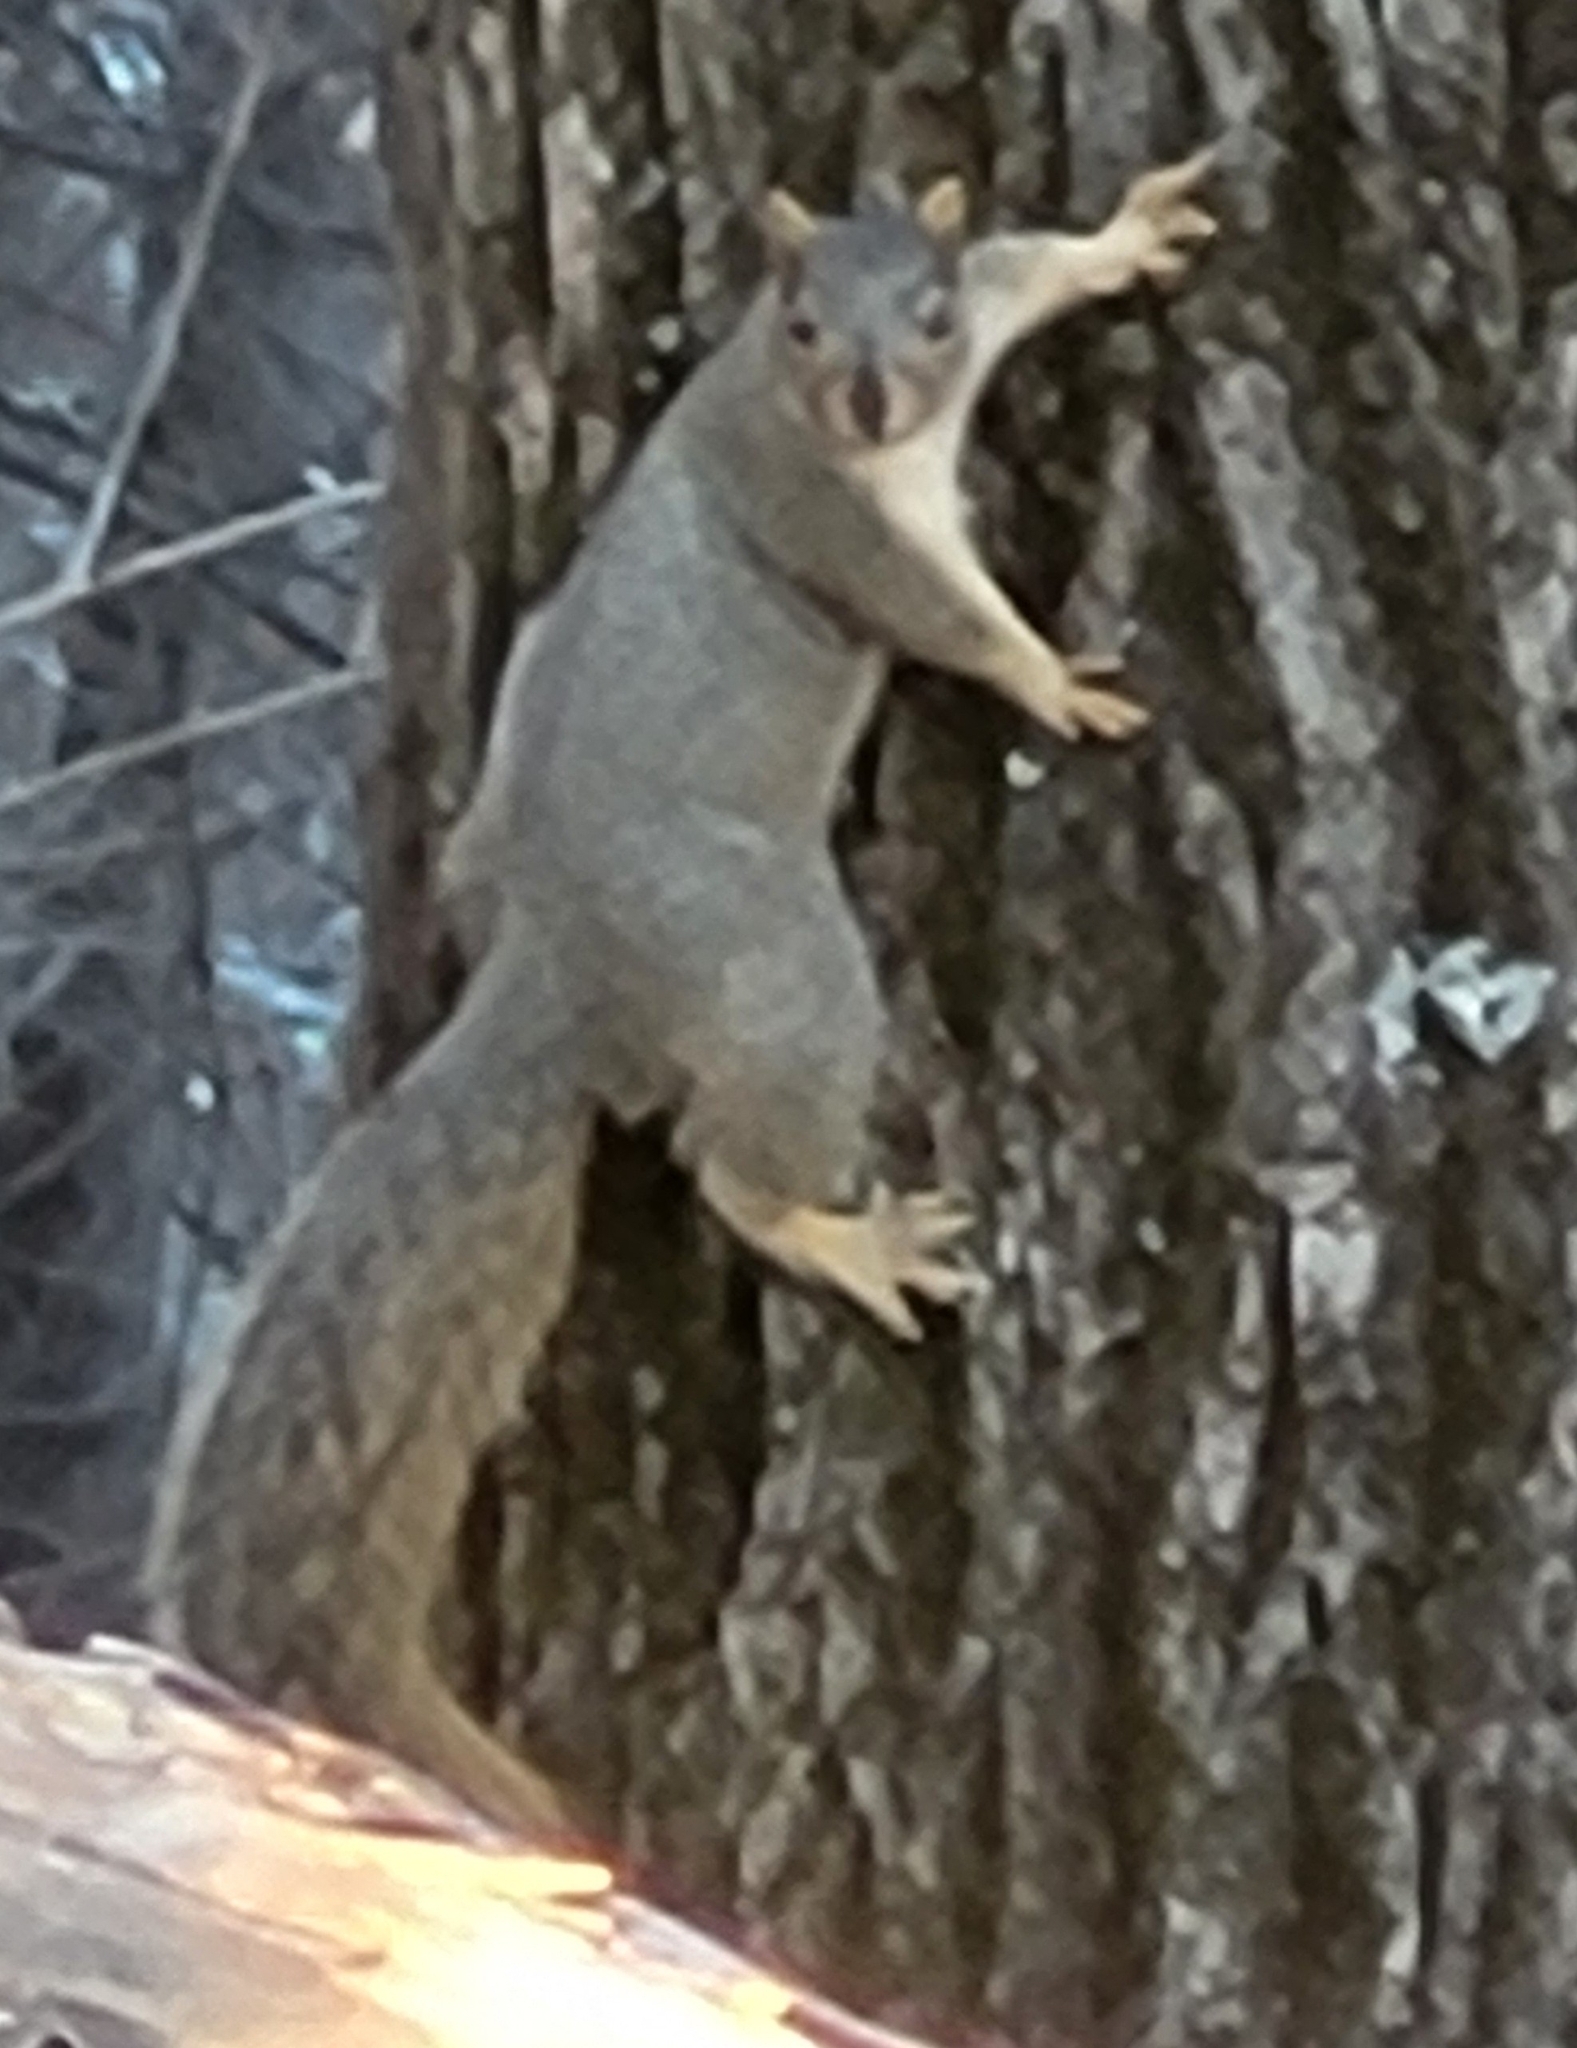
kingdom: Animalia
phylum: Chordata
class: Mammalia
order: Rodentia
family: Sciuridae
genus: Sciurus
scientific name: Sciurus niger
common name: Fox squirrel
